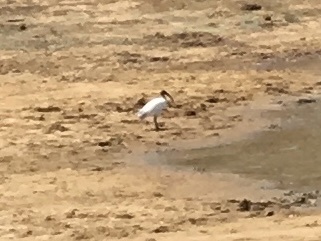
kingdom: Animalia
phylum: Chordata
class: Aves
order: Pelecaniformes
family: Threskiornithidae
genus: Threskiornis
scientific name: Threskiornis melanocephalus
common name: Black-headed ibis
